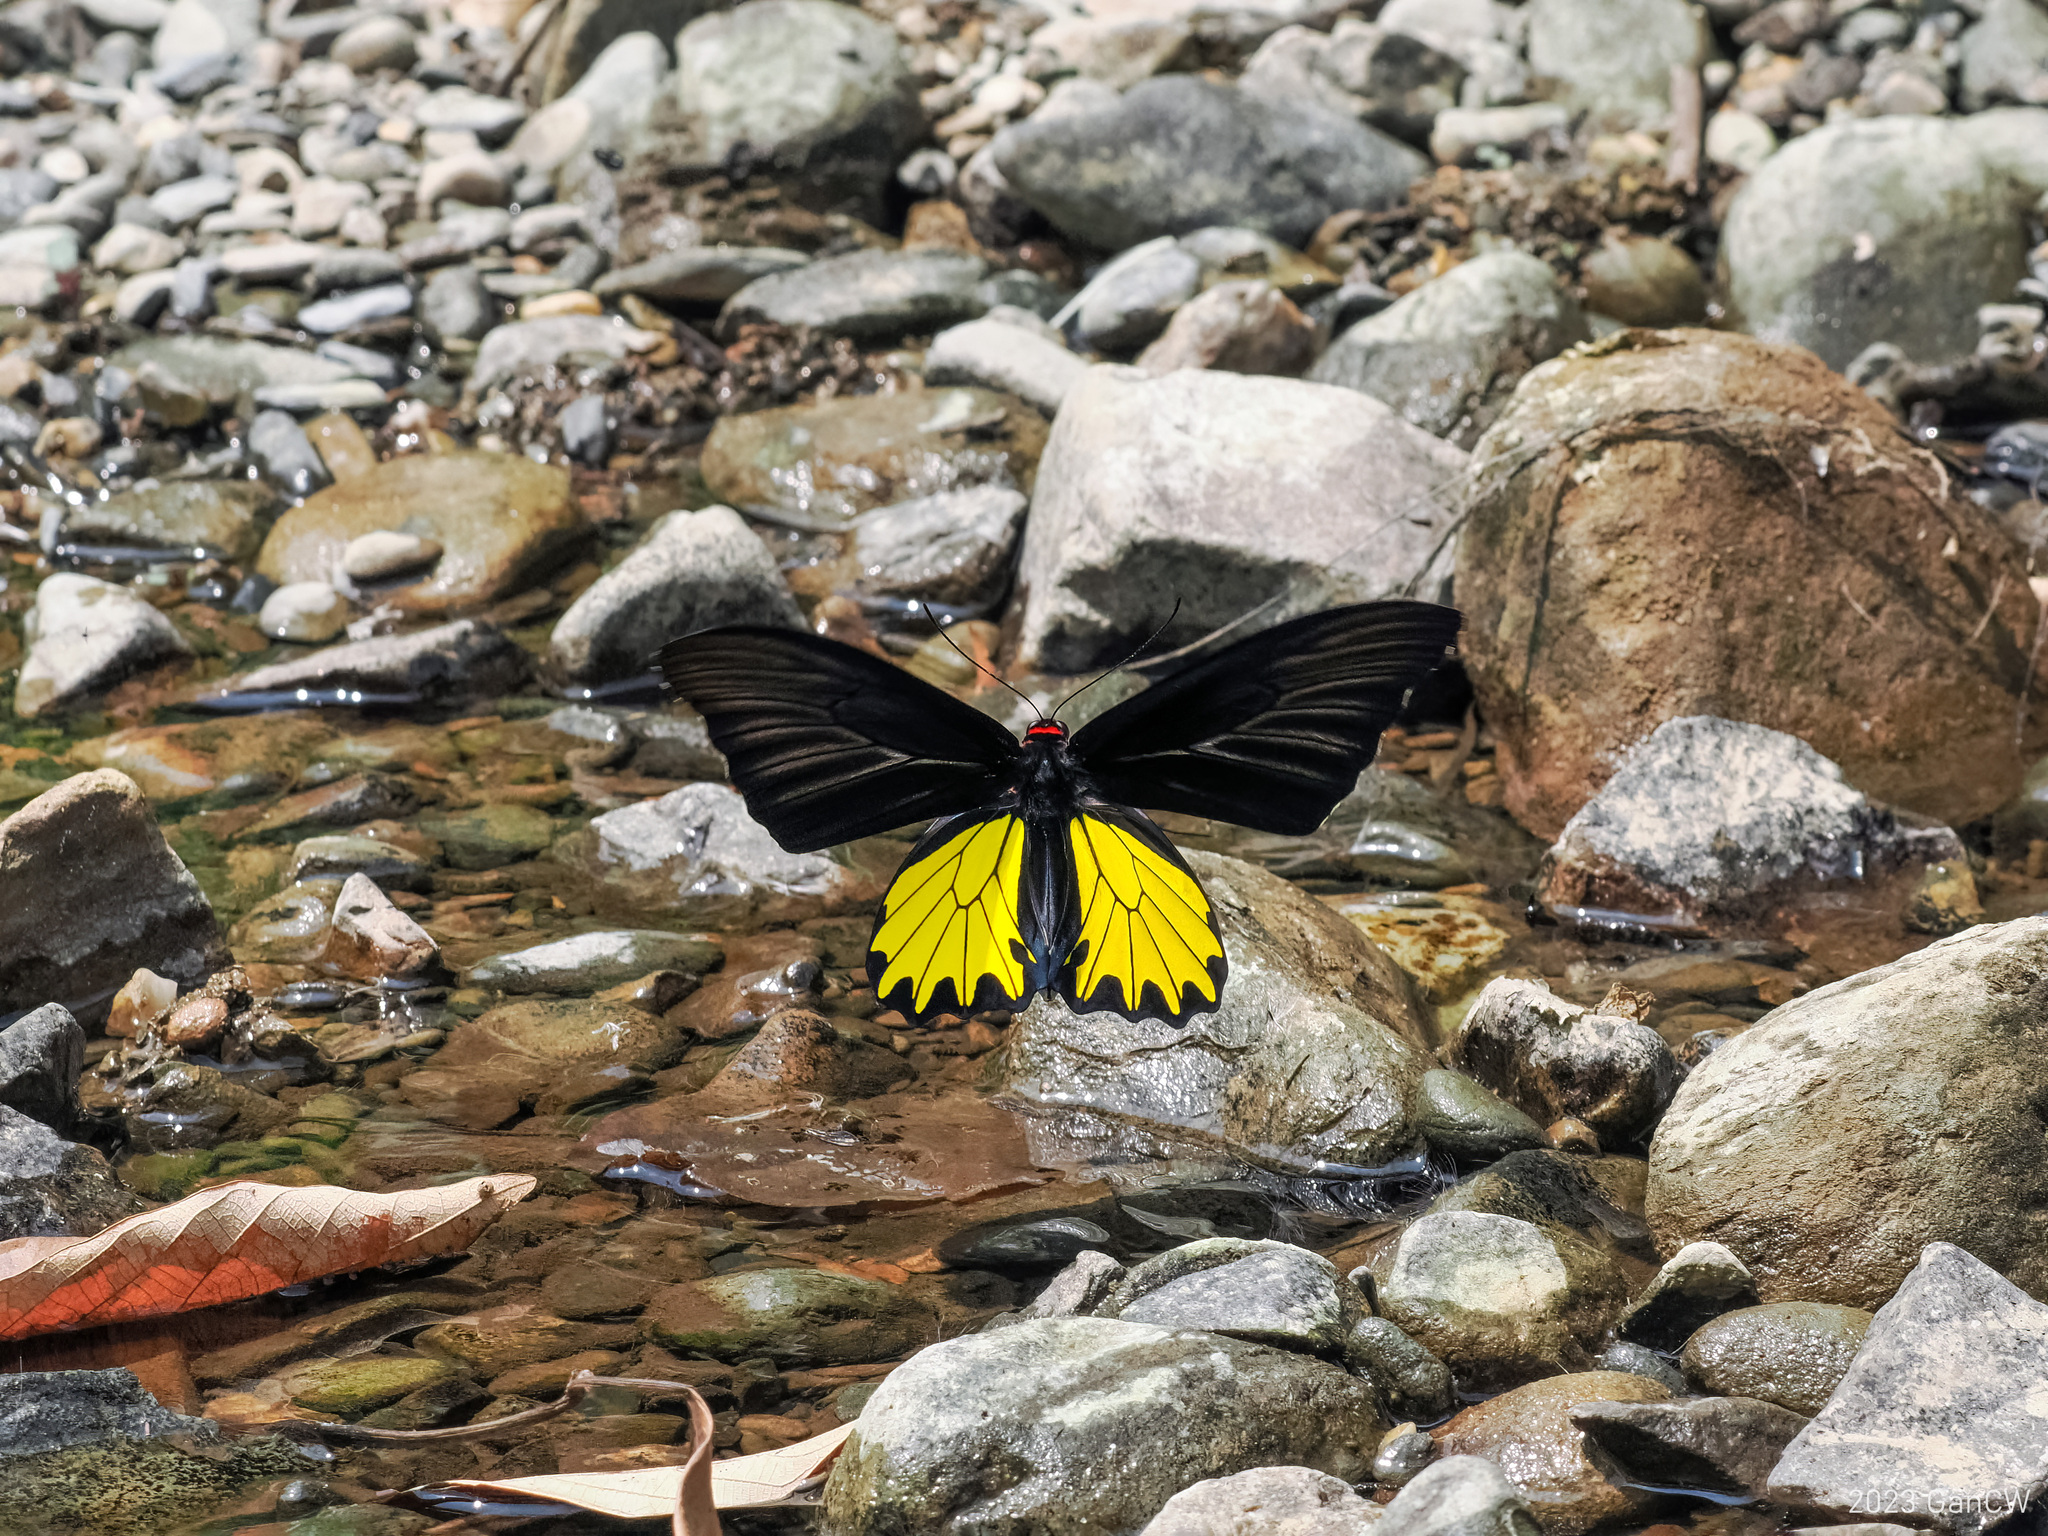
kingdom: Animalia
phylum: Arthropoda
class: Insecta
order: Lepidoptera
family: Papilionidae
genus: Troides
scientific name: Troides helena
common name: Common birdwing
